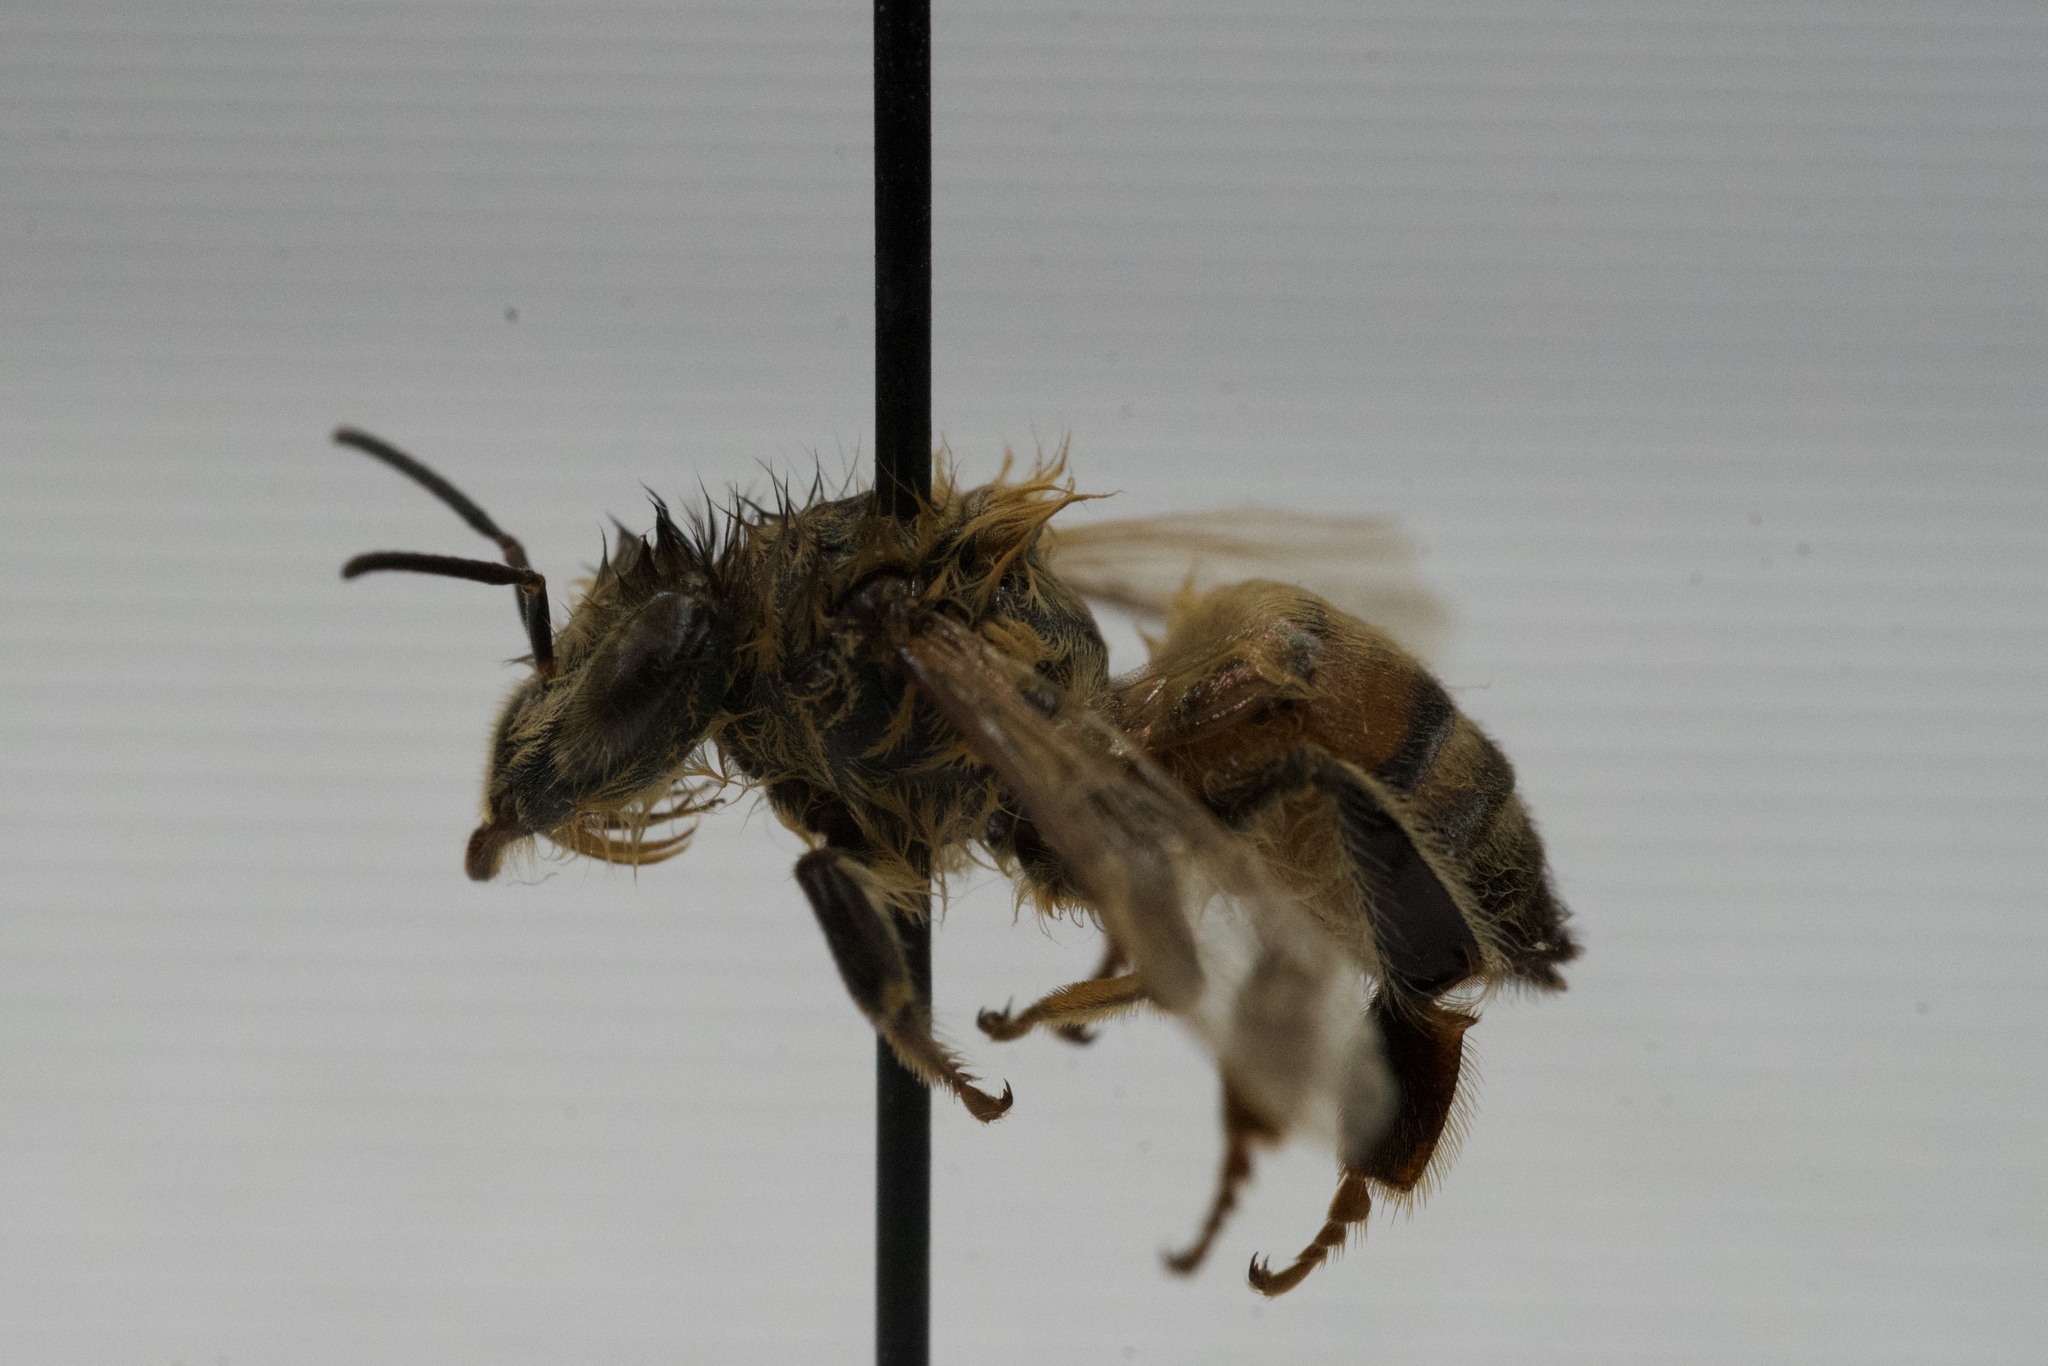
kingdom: Animalia
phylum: Arthropoda
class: Insecta
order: Hymenoptera
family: Apidae
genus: Apis
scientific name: Apis mellifera
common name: Honey bee
